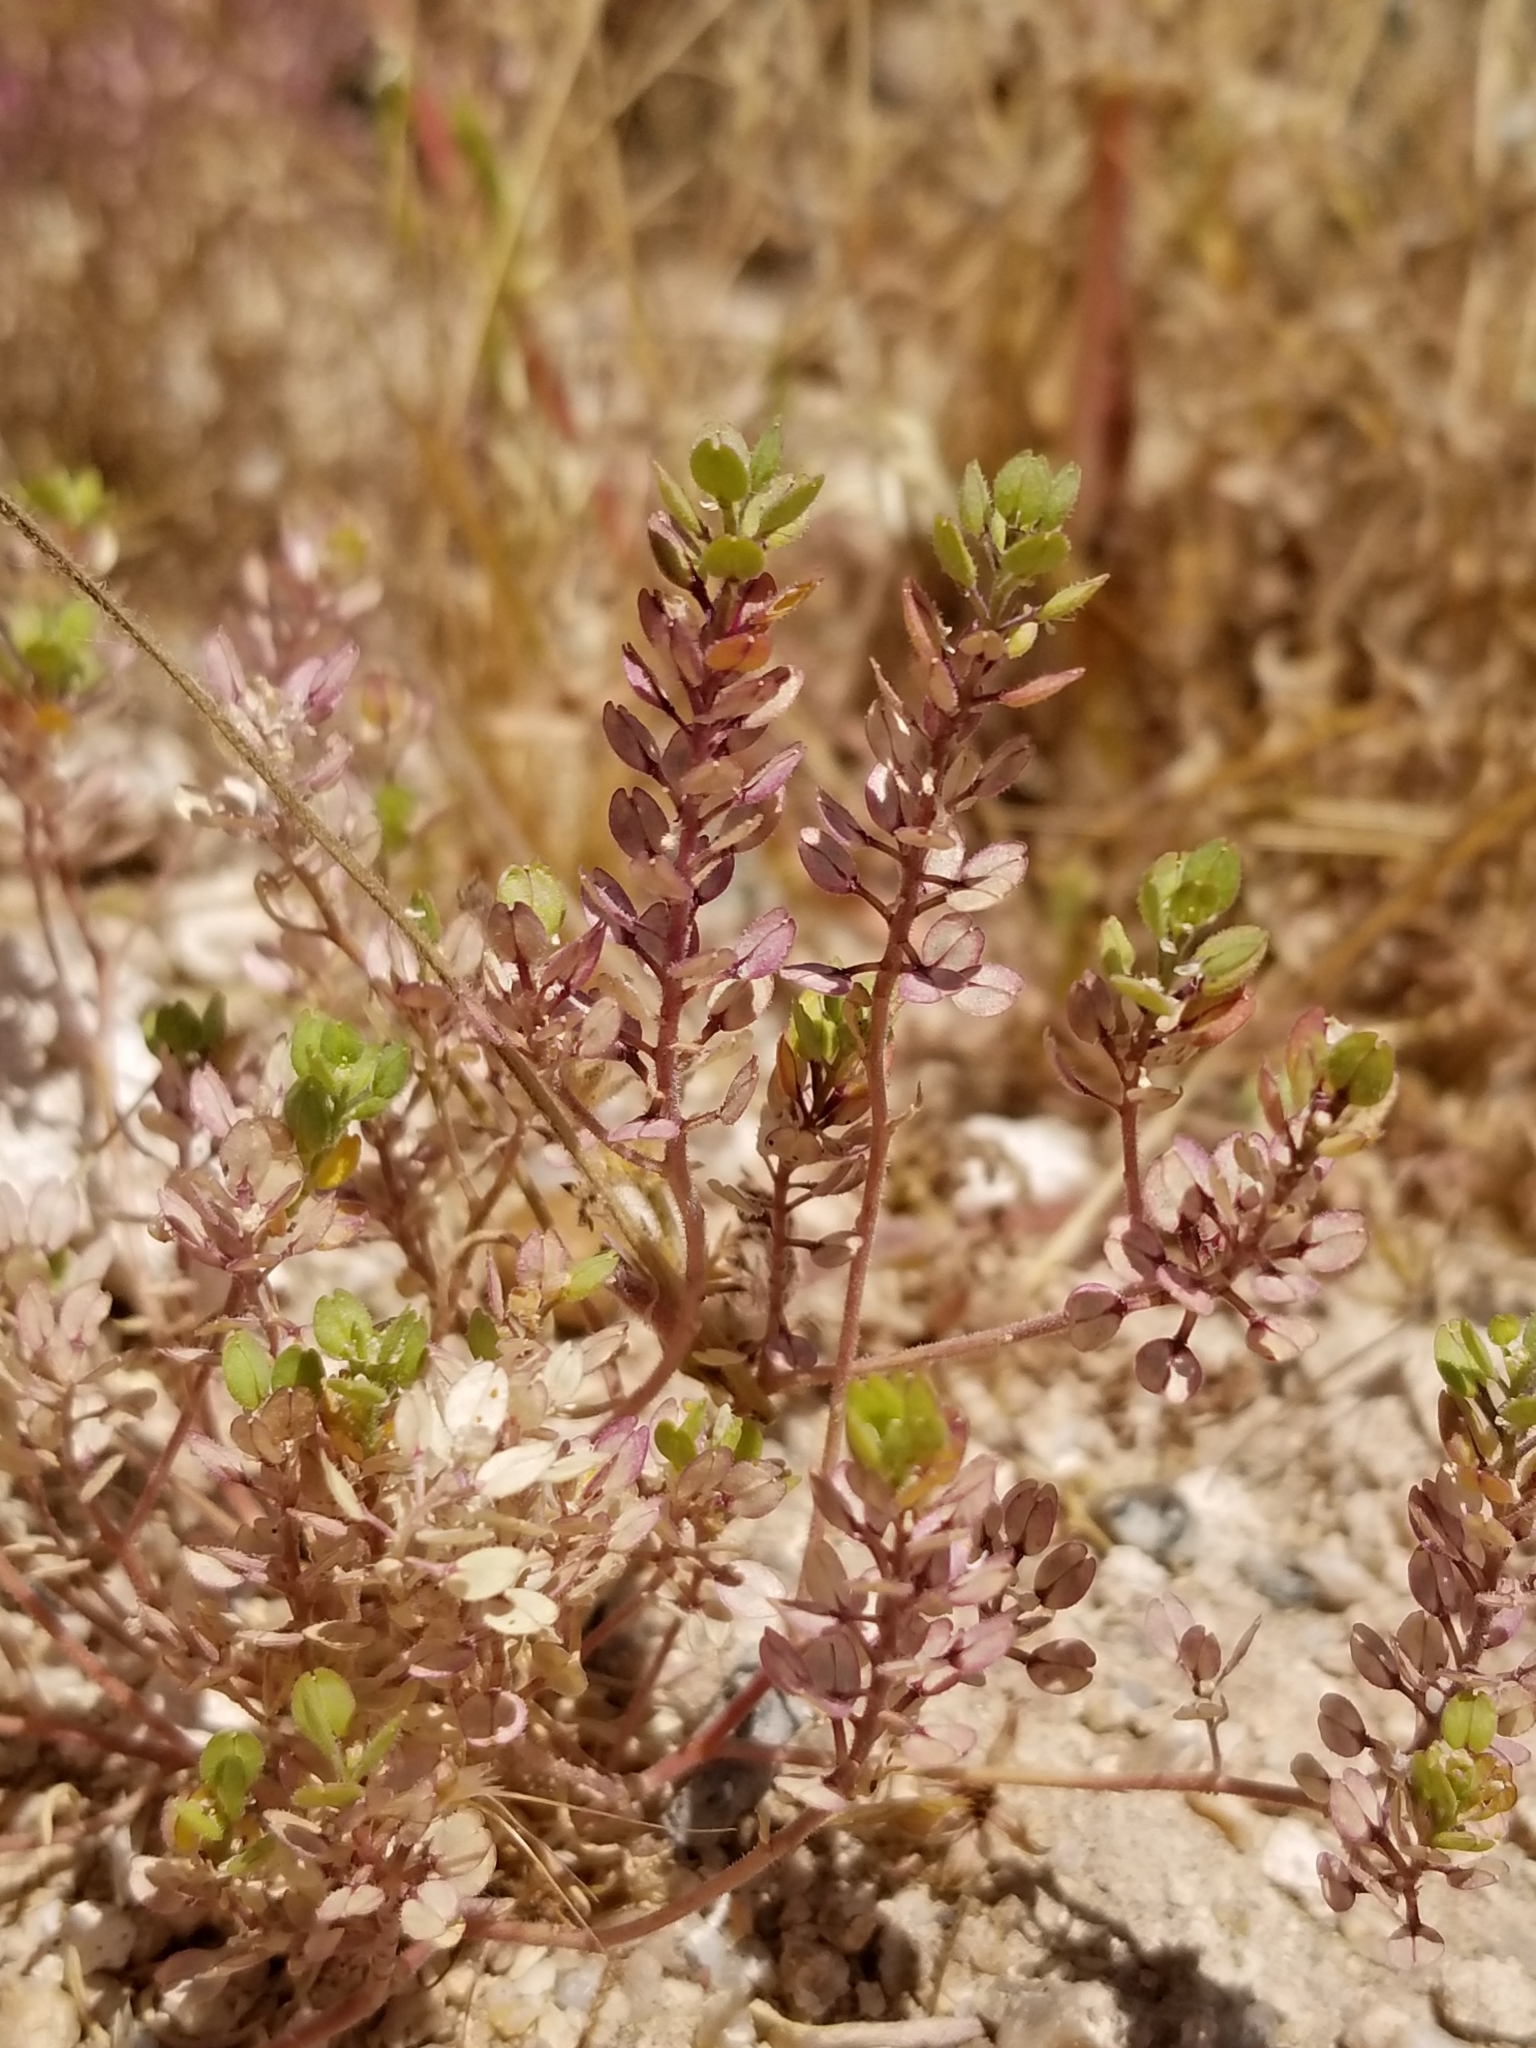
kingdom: Plantae
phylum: Tracheophyta
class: Magnoliopsida
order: Brassicales
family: Brassicaceae
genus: Lepidium
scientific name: Lepidium lasiocarpum
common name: Hairy-pod pepperwort
